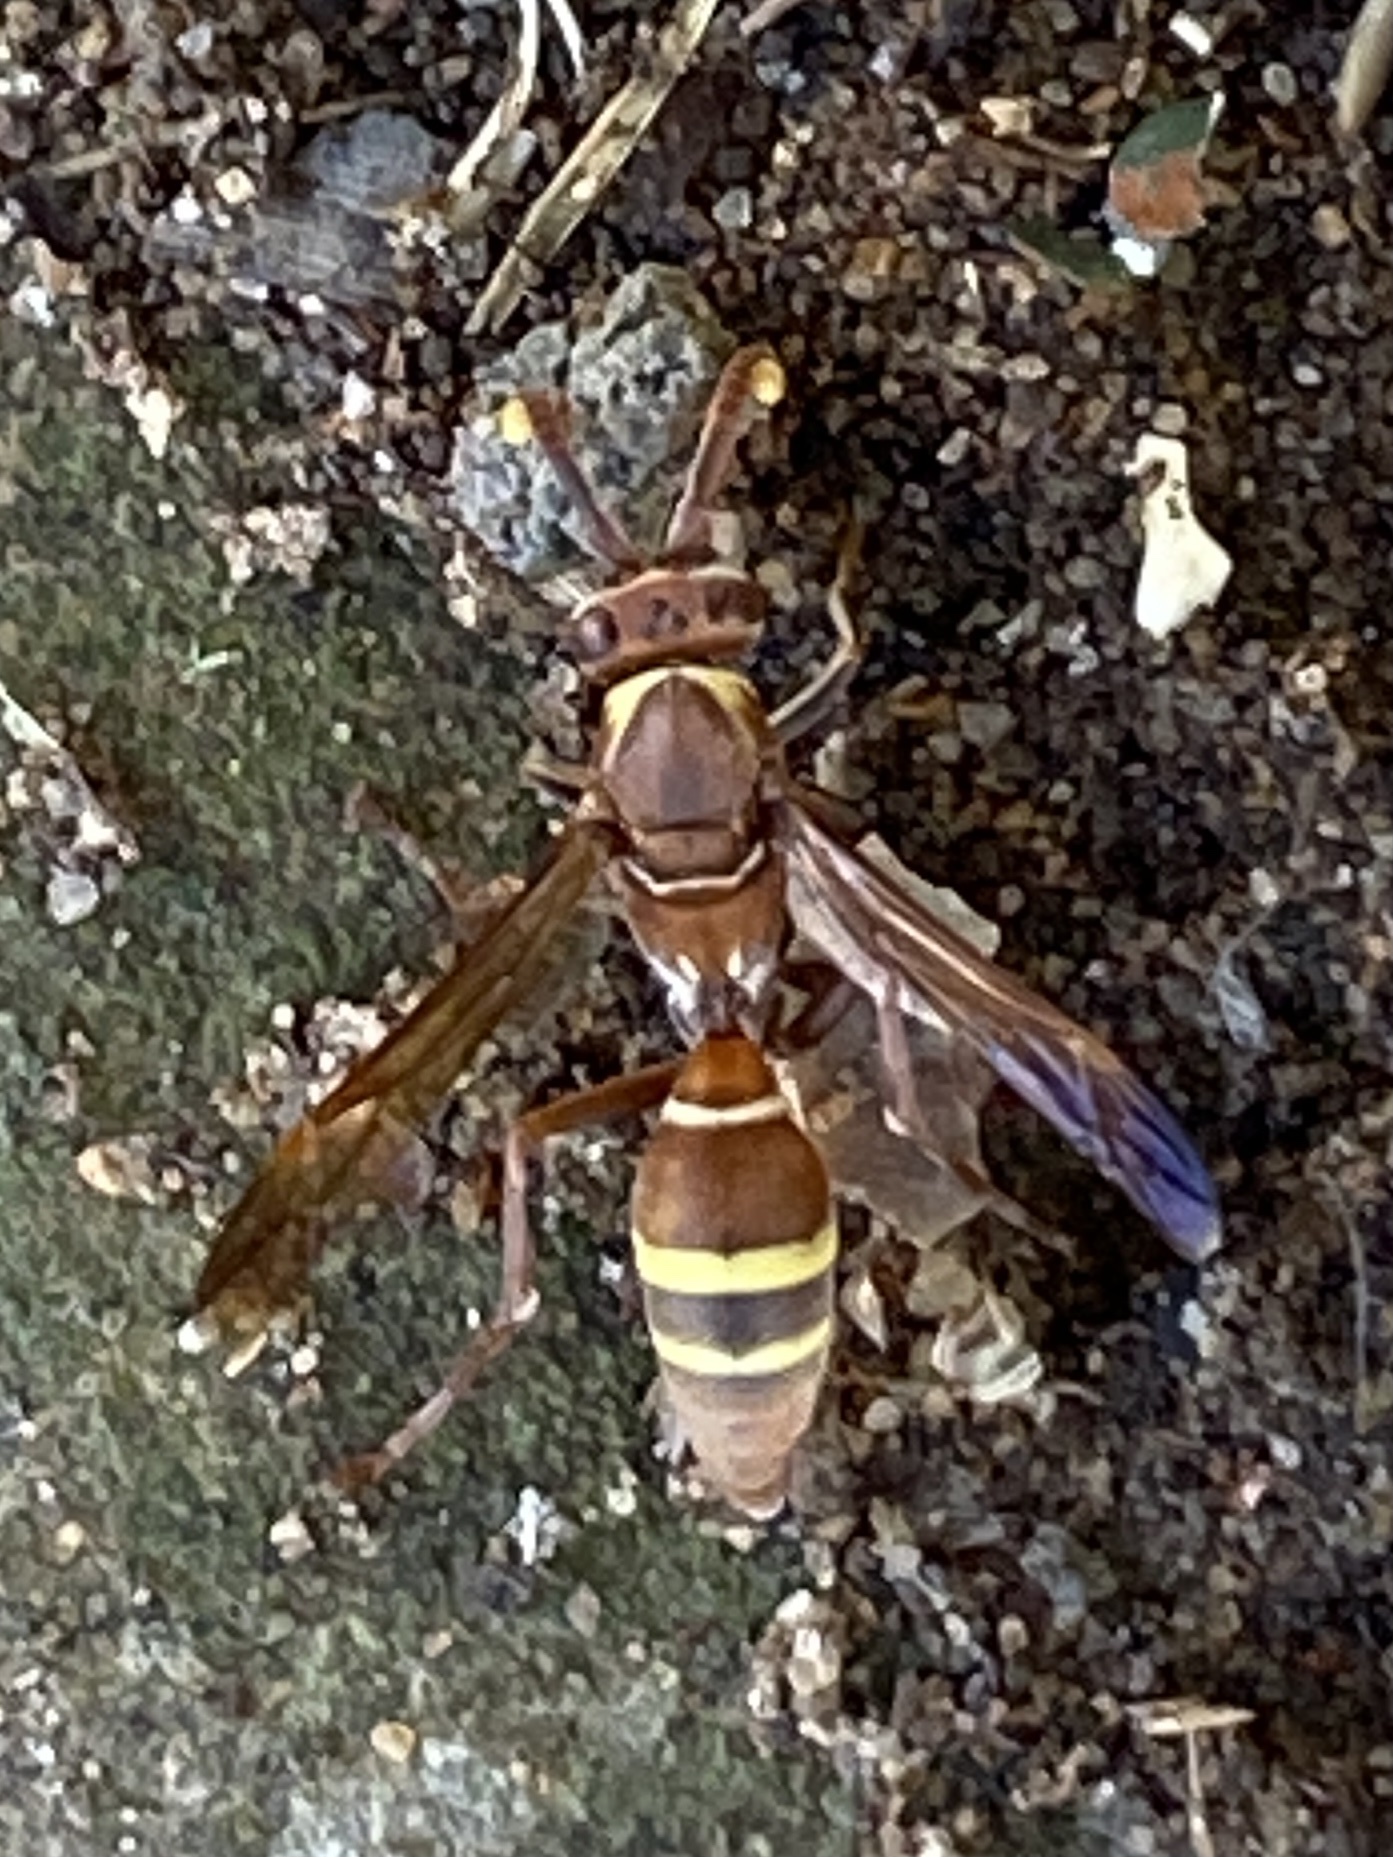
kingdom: Animalia
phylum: Arthropoda
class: Insecta
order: Hymenoptera
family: Eumenidae
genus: Polistes
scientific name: Polistes badius
